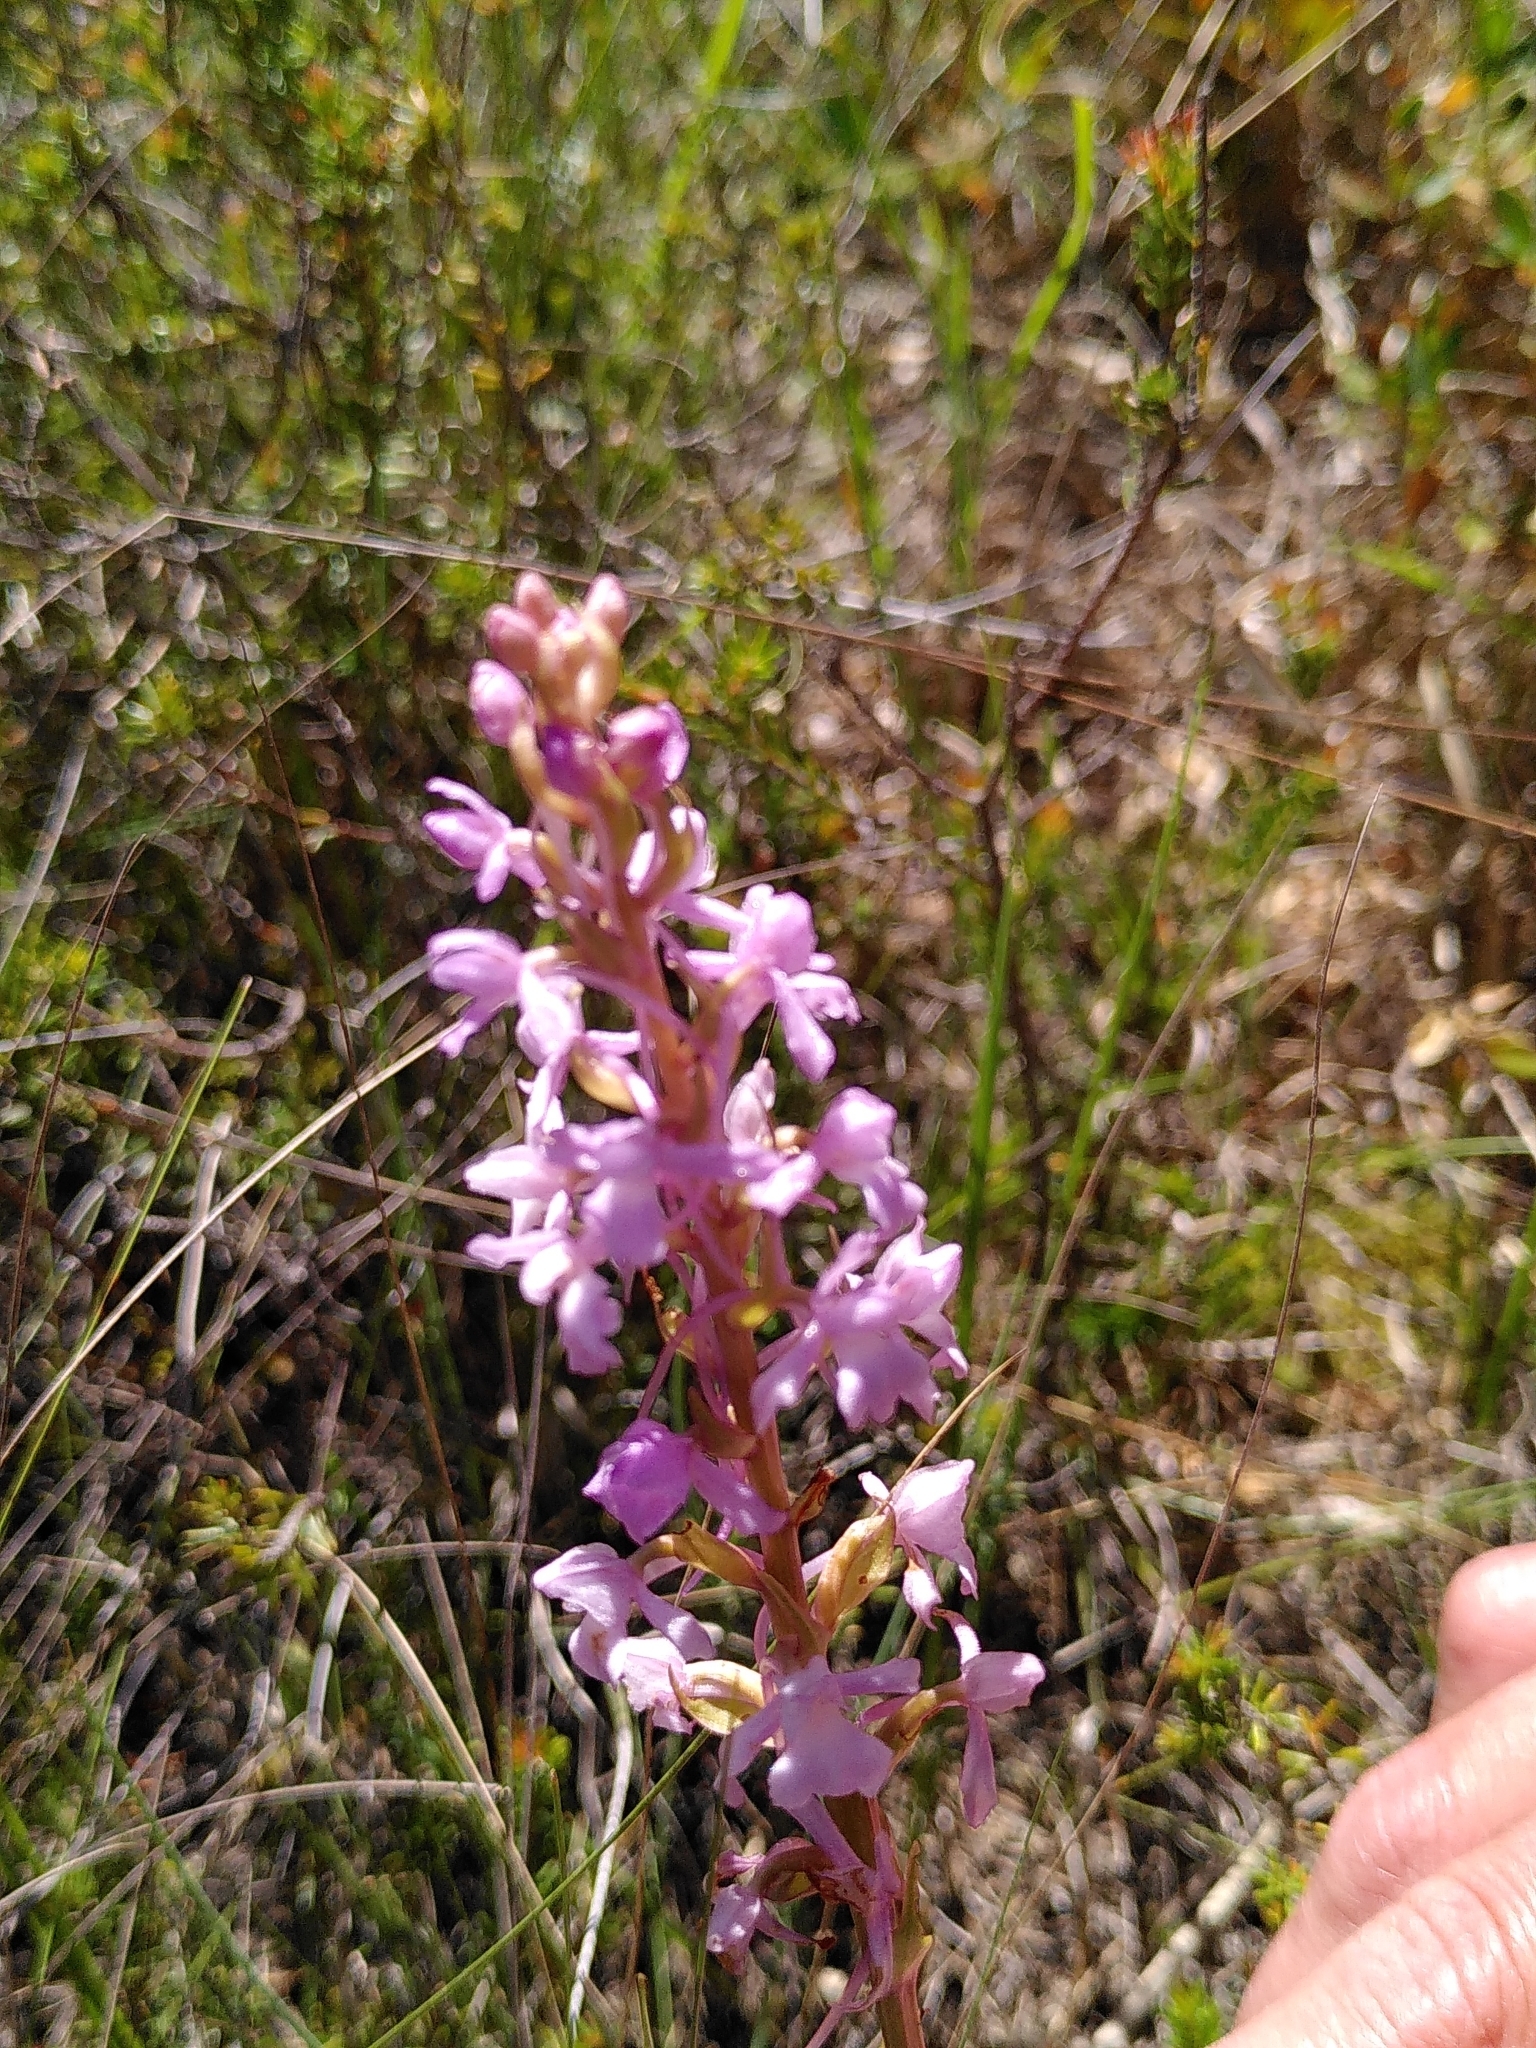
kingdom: Plantae
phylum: Tracheophyta
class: Liliopsida
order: Asparagales
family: Orchidaceae
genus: Gymnadenia
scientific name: Gymnadenia conopsea
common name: Fragrant orchid
